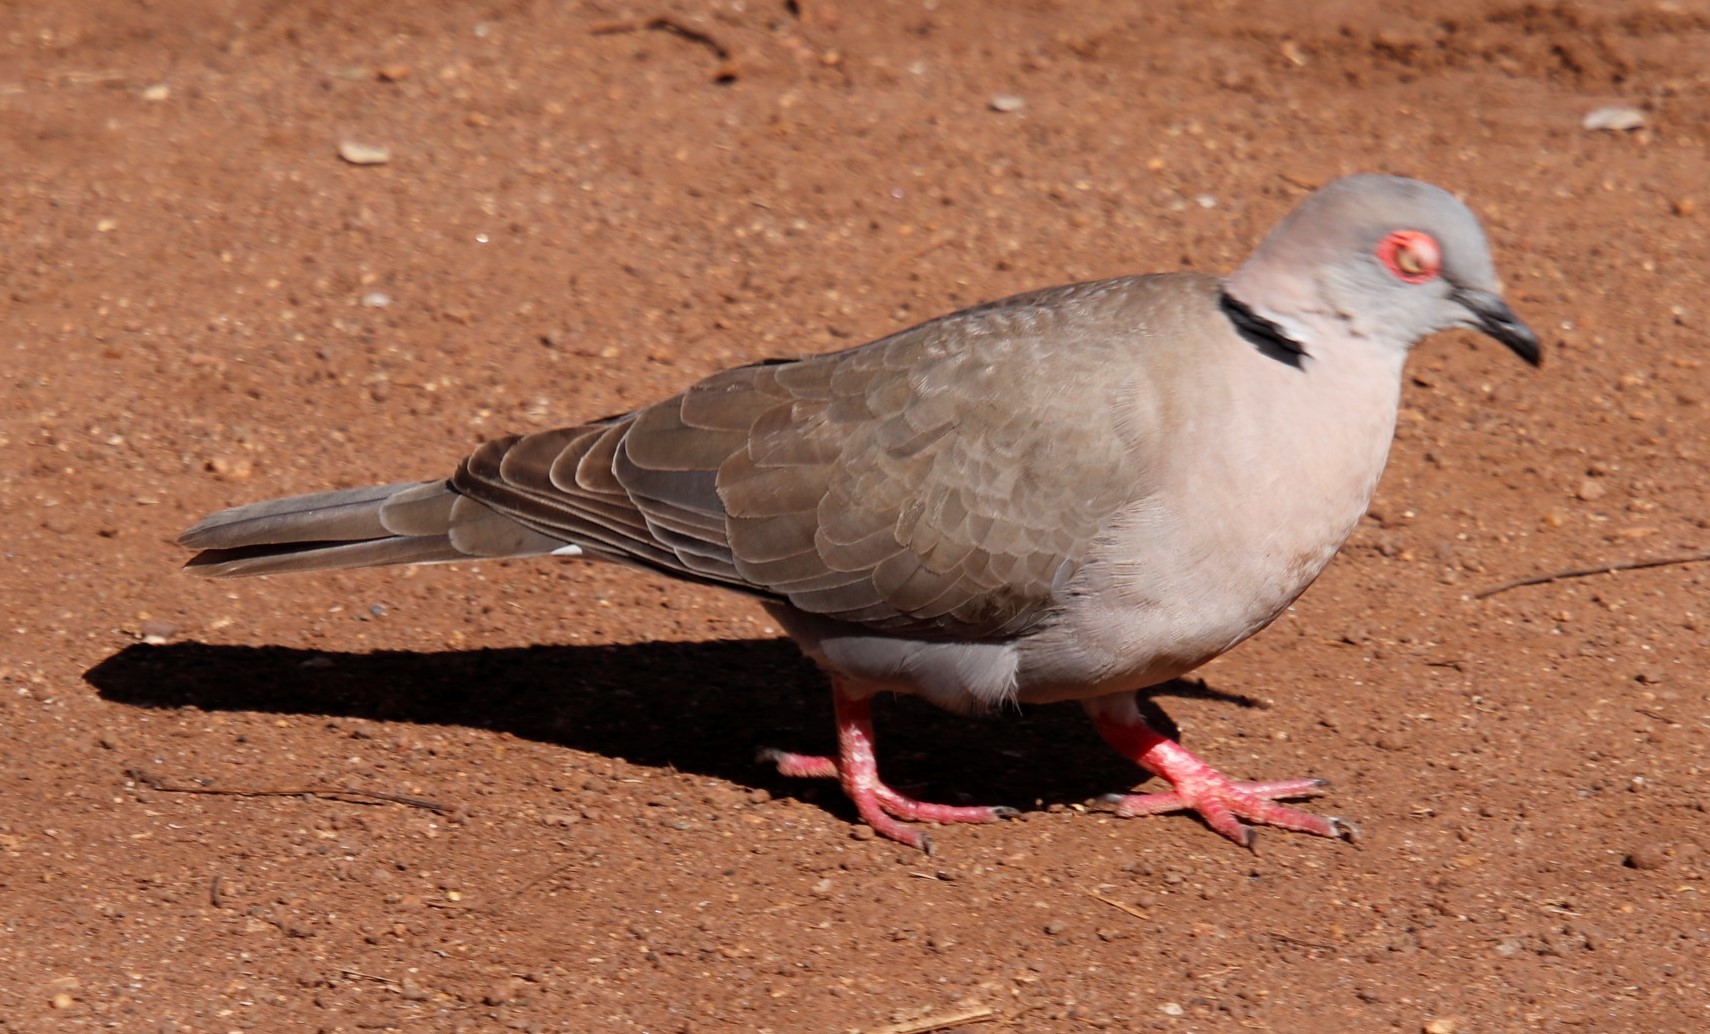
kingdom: Animalia
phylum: Chordata
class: Aves
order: Columbiformes
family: Columbidae
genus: Streptopelia
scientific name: Streptopelia decipiens
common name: Mourning collared dove
